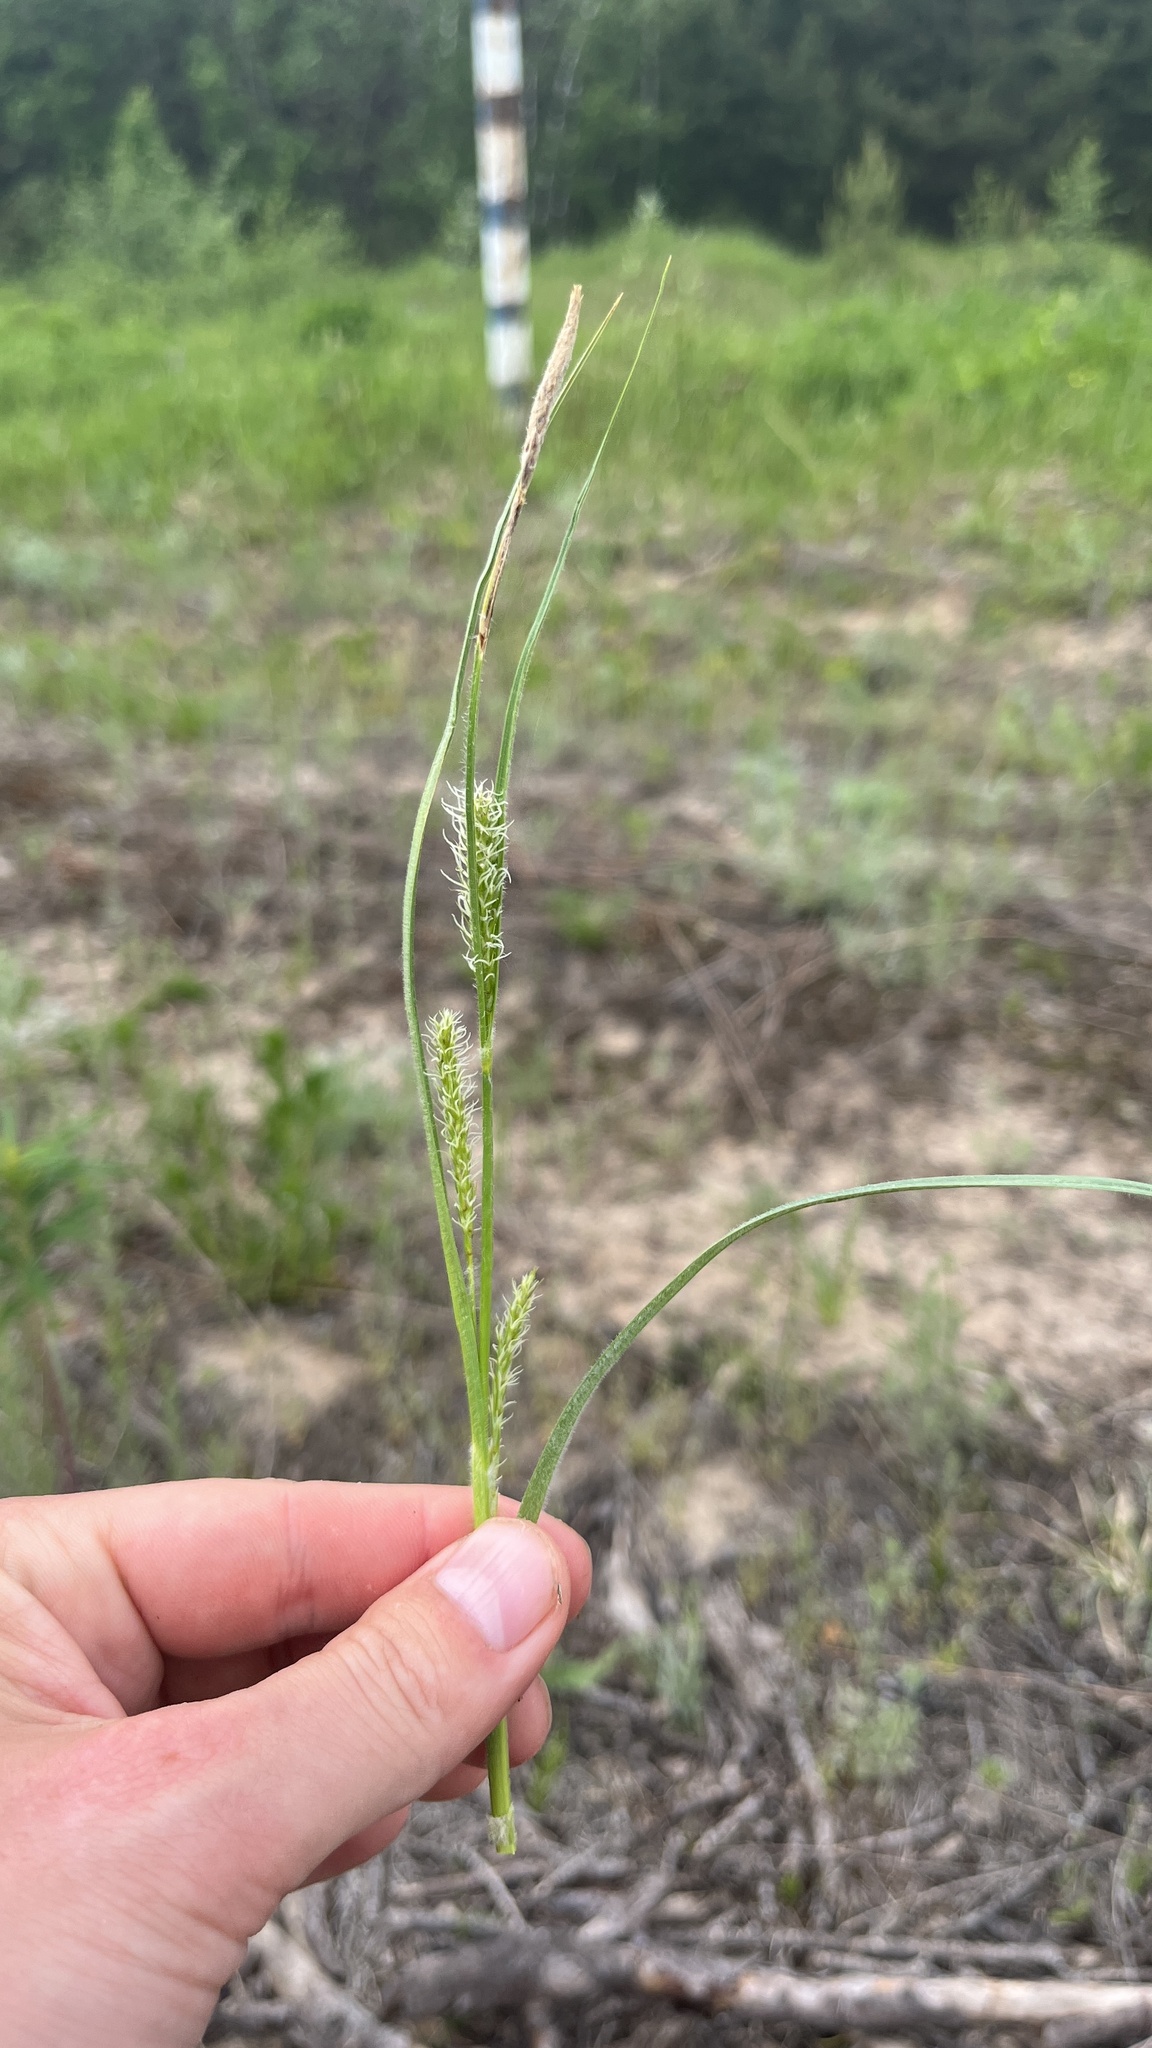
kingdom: Plantae
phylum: Tracheophyta
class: Liliopsida
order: Poales
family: Cyperaceae
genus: Carex
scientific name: Carex hirta
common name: Hairy sedge
